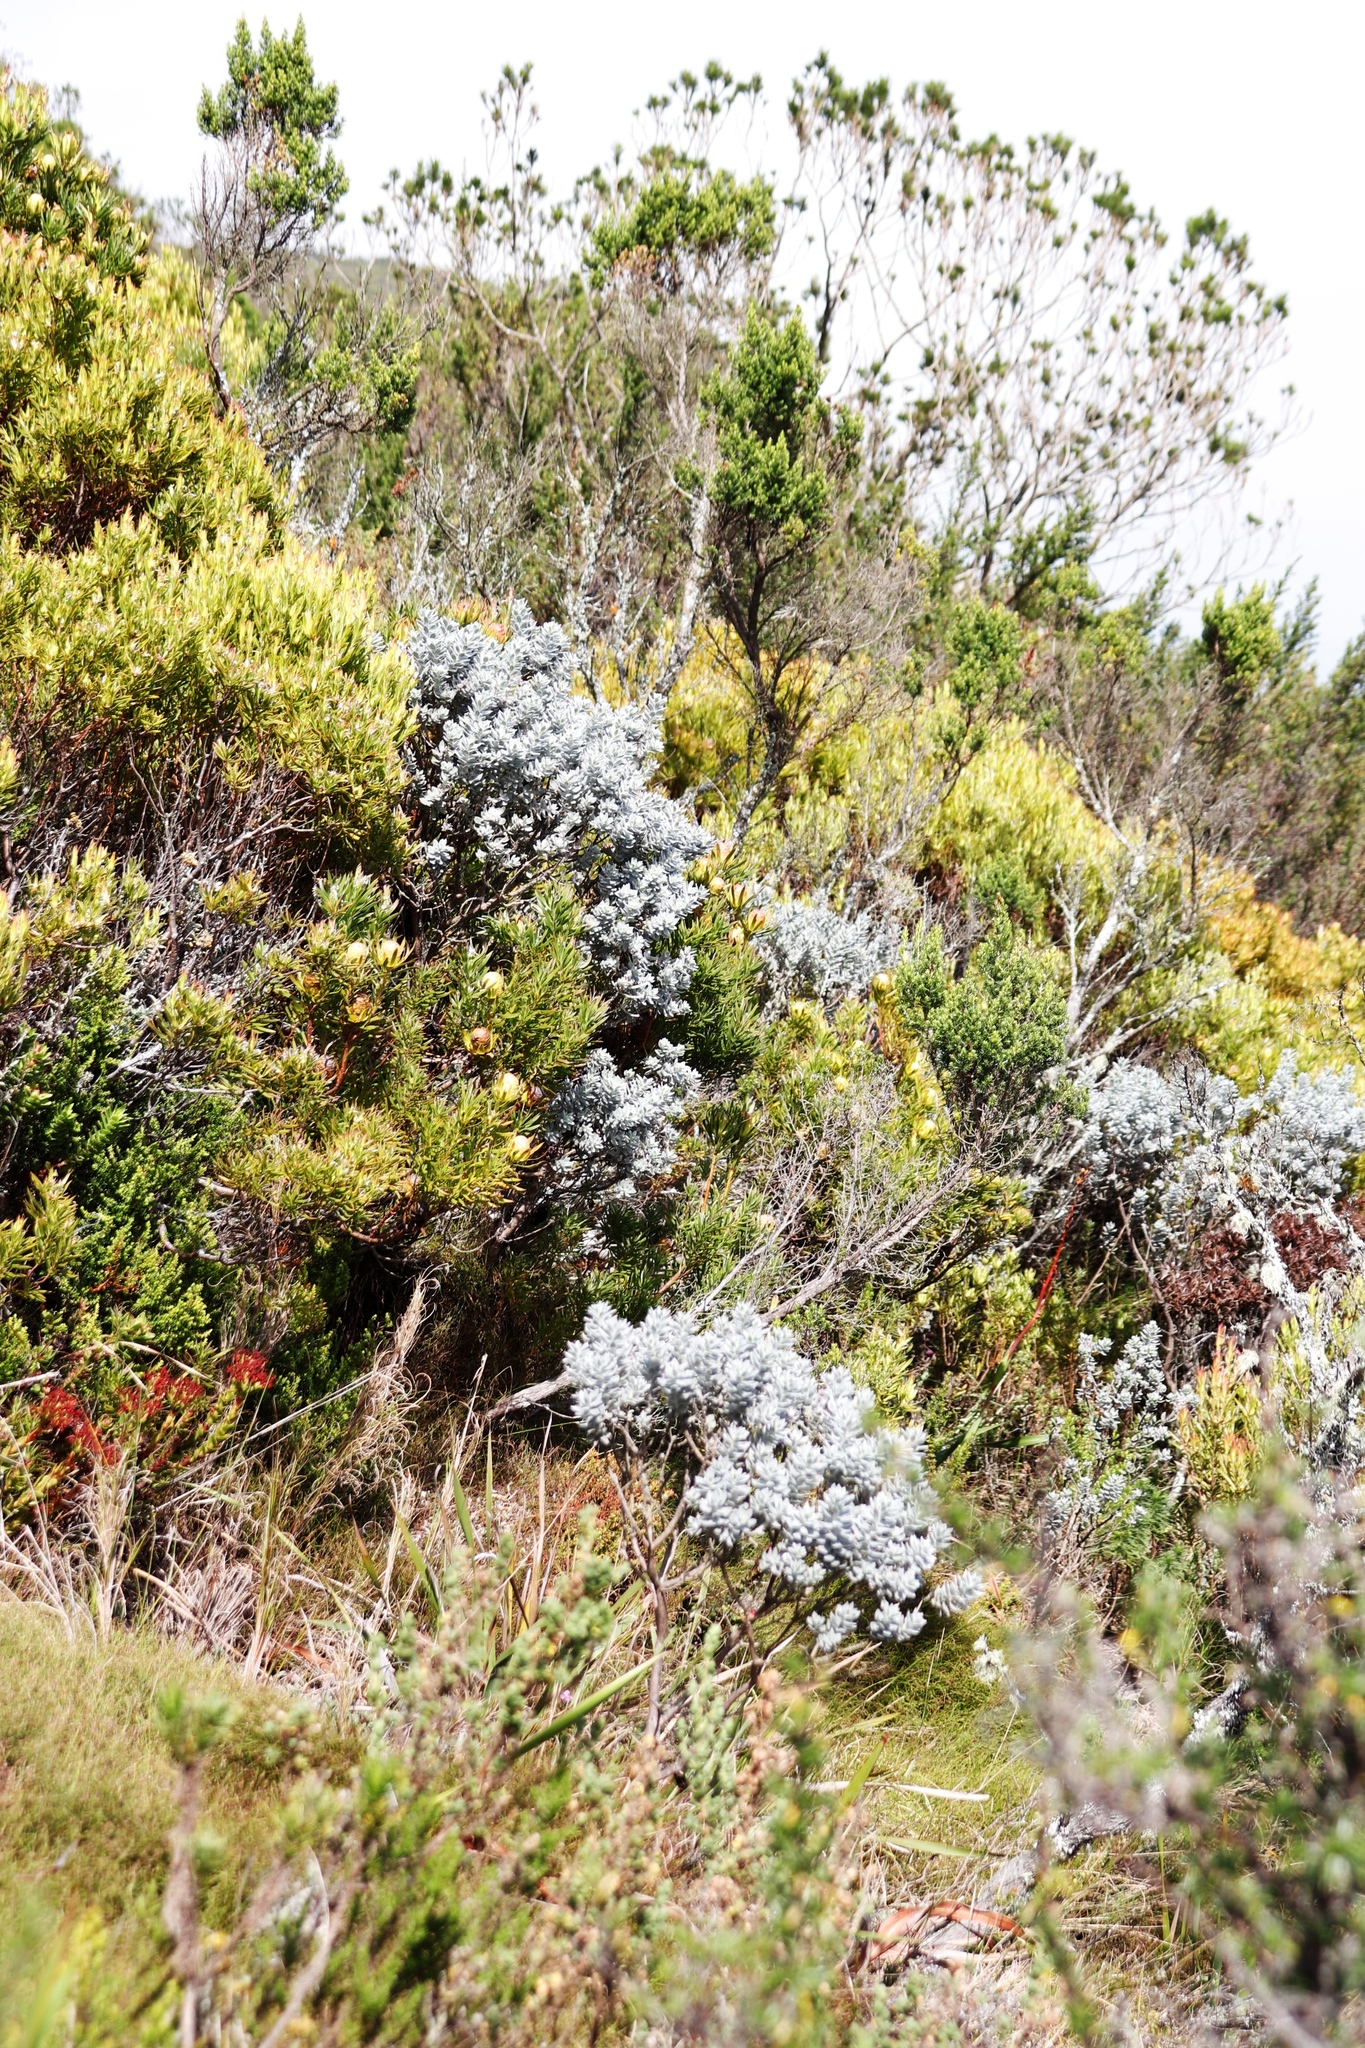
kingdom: Plantae
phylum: Tracheophyta
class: Magnoliopsida
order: Fabales
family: Fabaceae
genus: Xiphotheca
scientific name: Xiphotheca fruticosa
